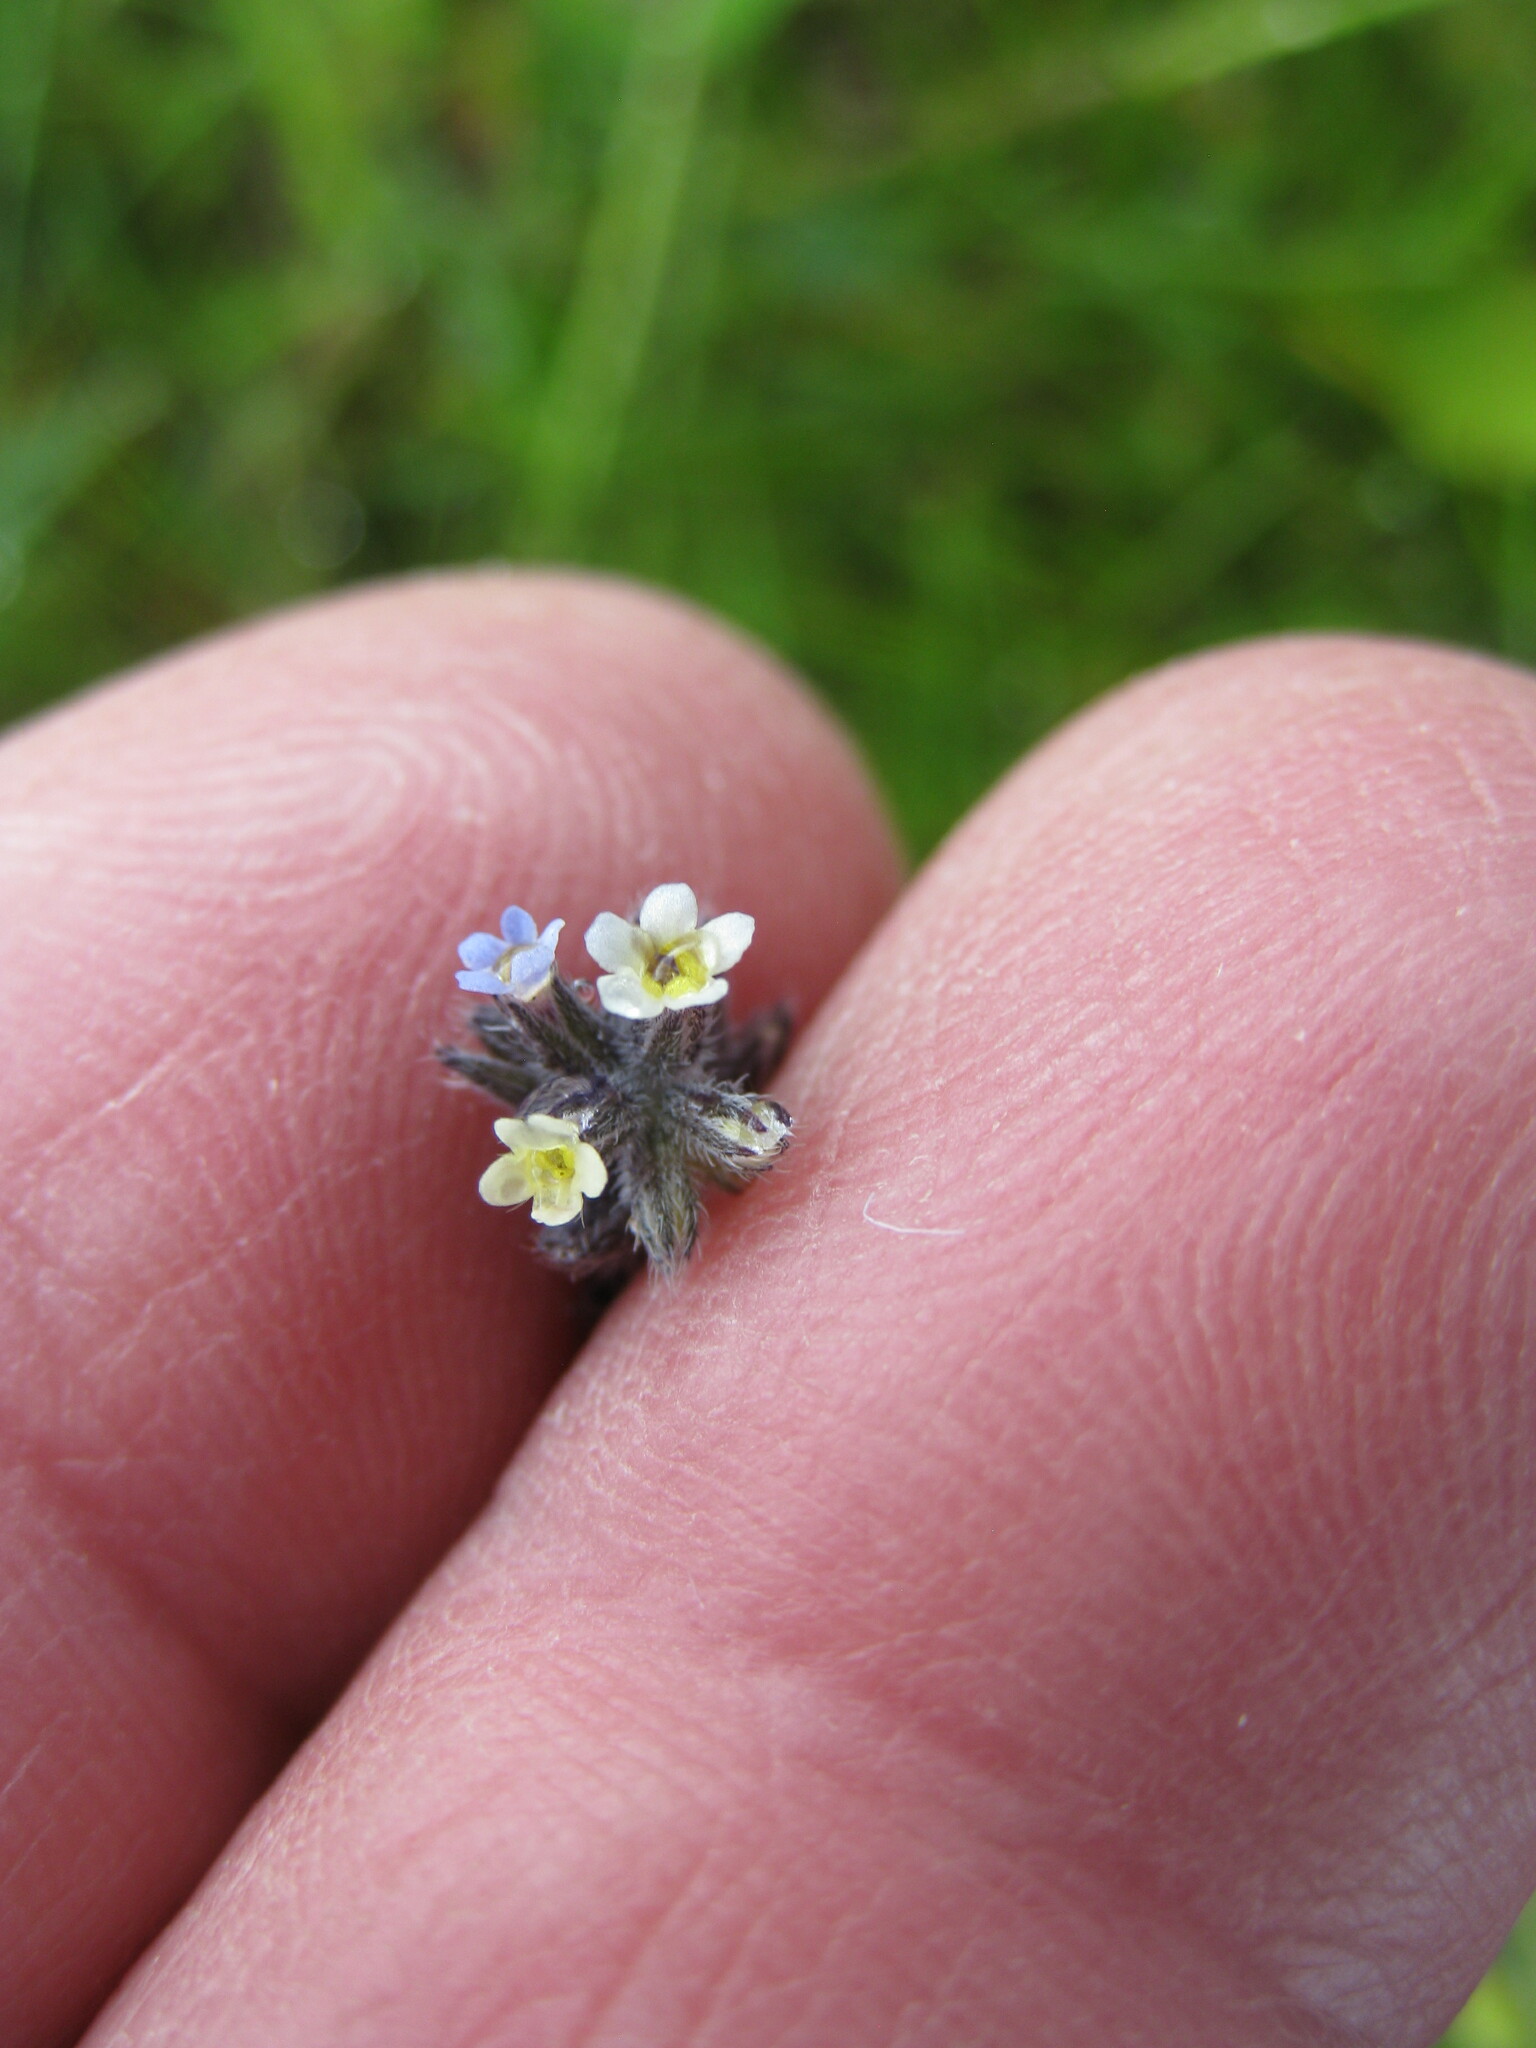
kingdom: Plantae
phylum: Tracheophyta
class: Magnoliopsida
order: Boraginales
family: Boraginaceae
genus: Myosotis
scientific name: Myosotis discolor
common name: Changing forget-me-not
